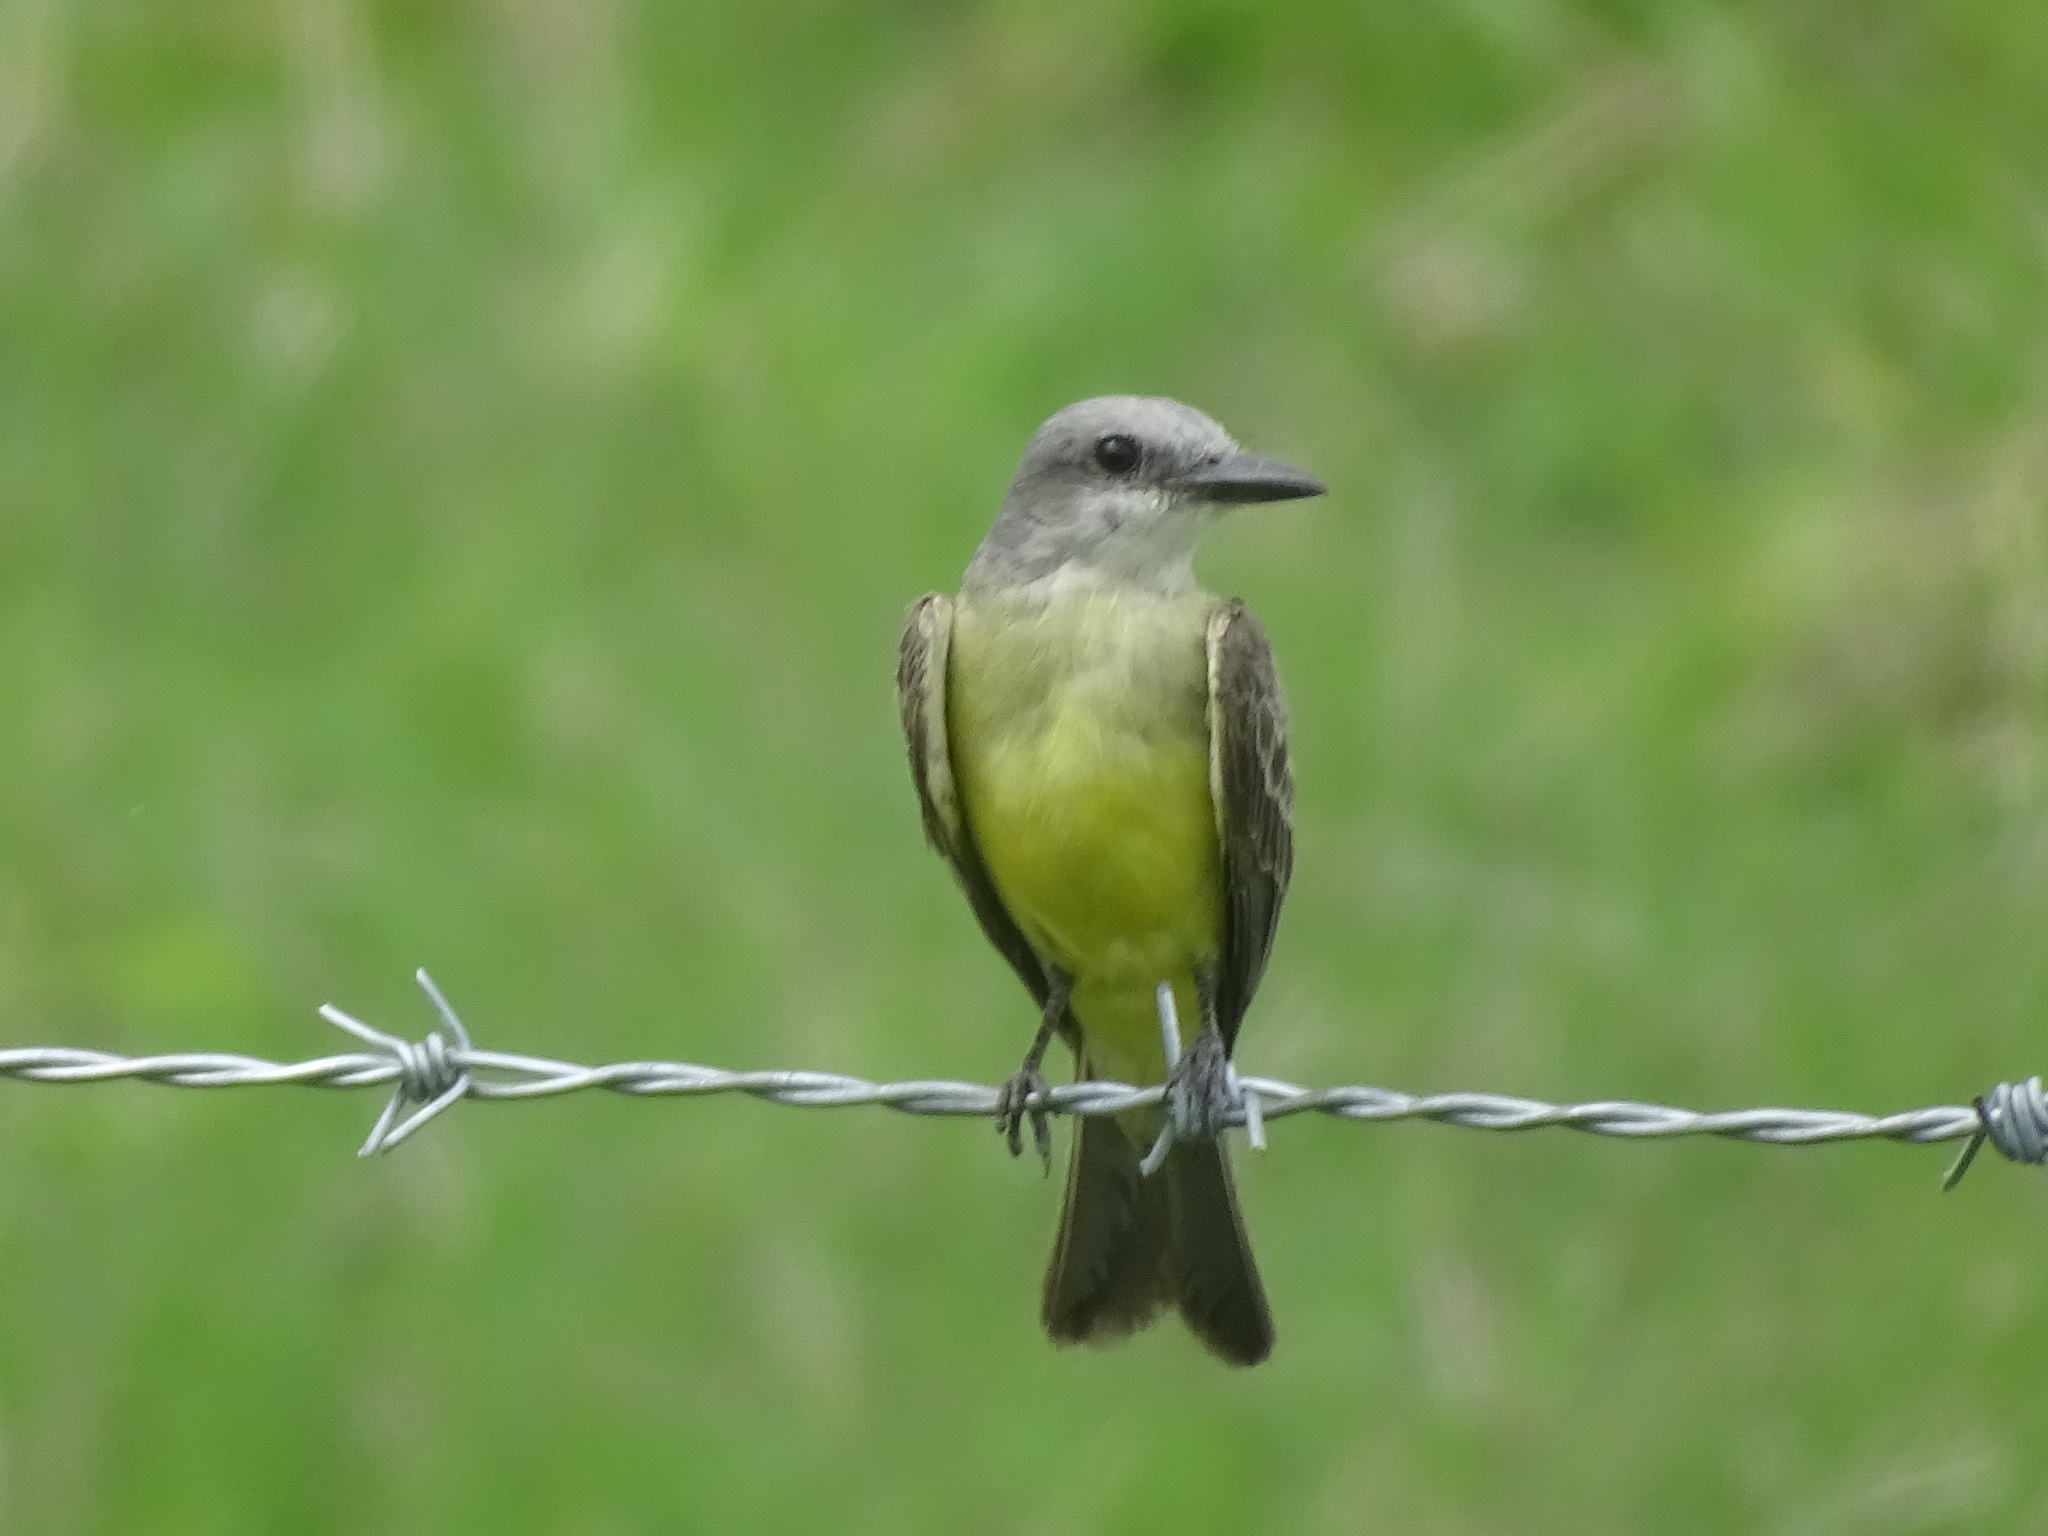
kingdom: Animalia
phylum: Chordata
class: Aves
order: Passeriformes
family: Tyrannidae
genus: Tyrannus
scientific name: Tyrannus melancholicus
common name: Tropical kingbird
